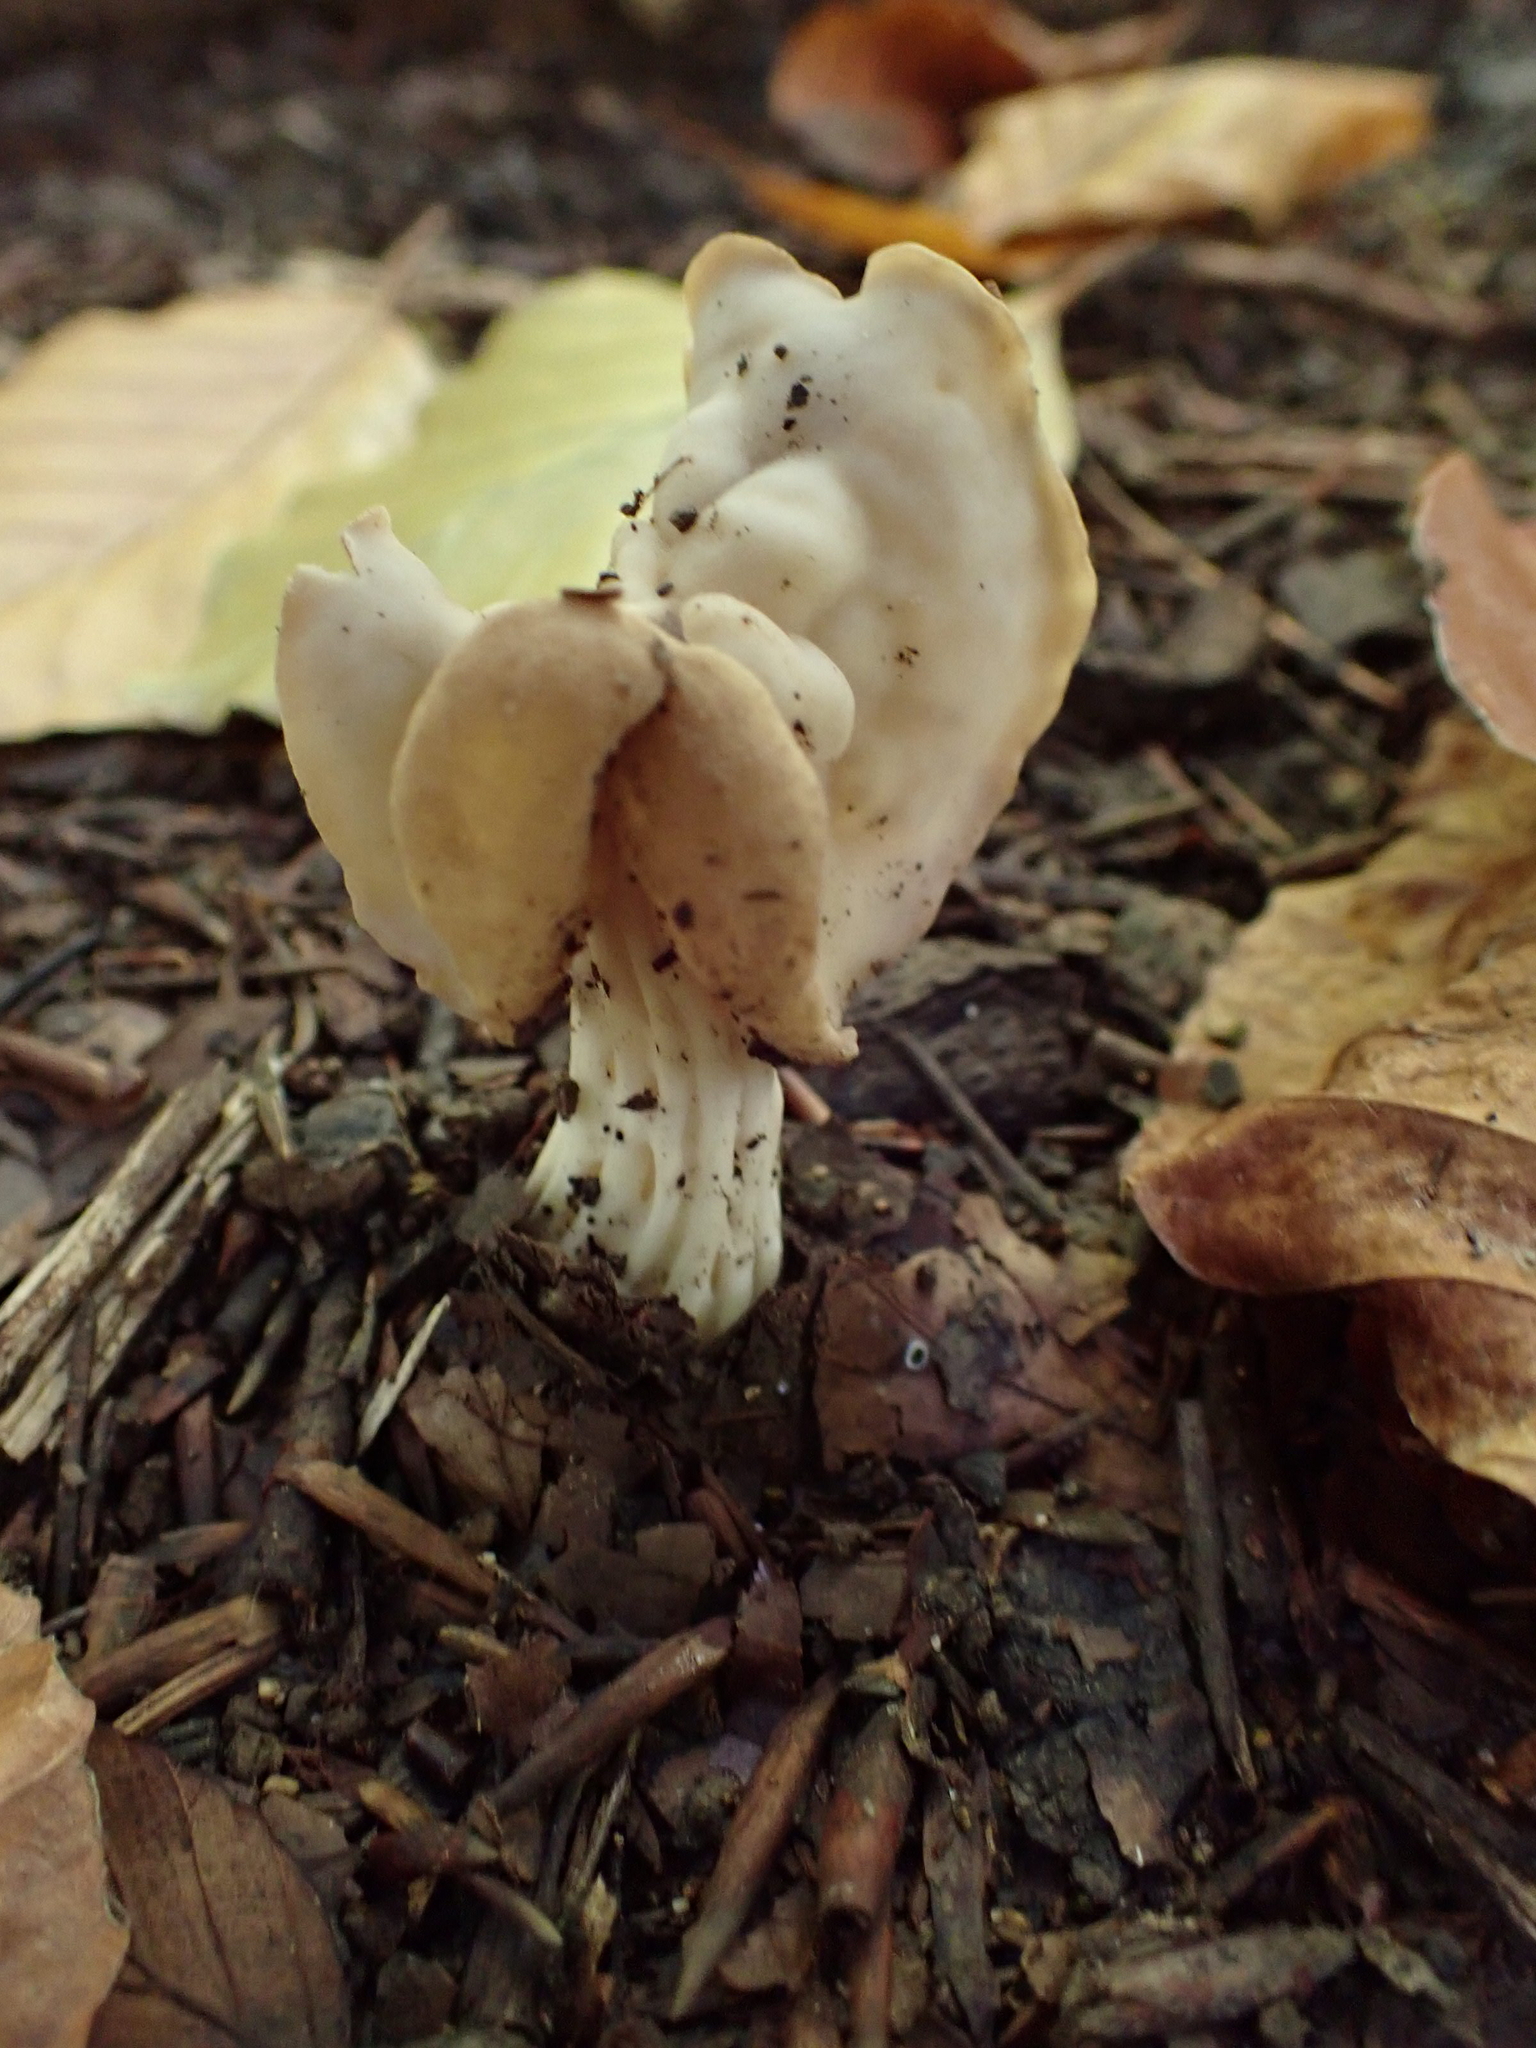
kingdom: Fungi
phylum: Ascomycota
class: Pezizomycetes
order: Pezizales
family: Helvellaceae
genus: Helvella
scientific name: Helvella crispa
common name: White saddle
